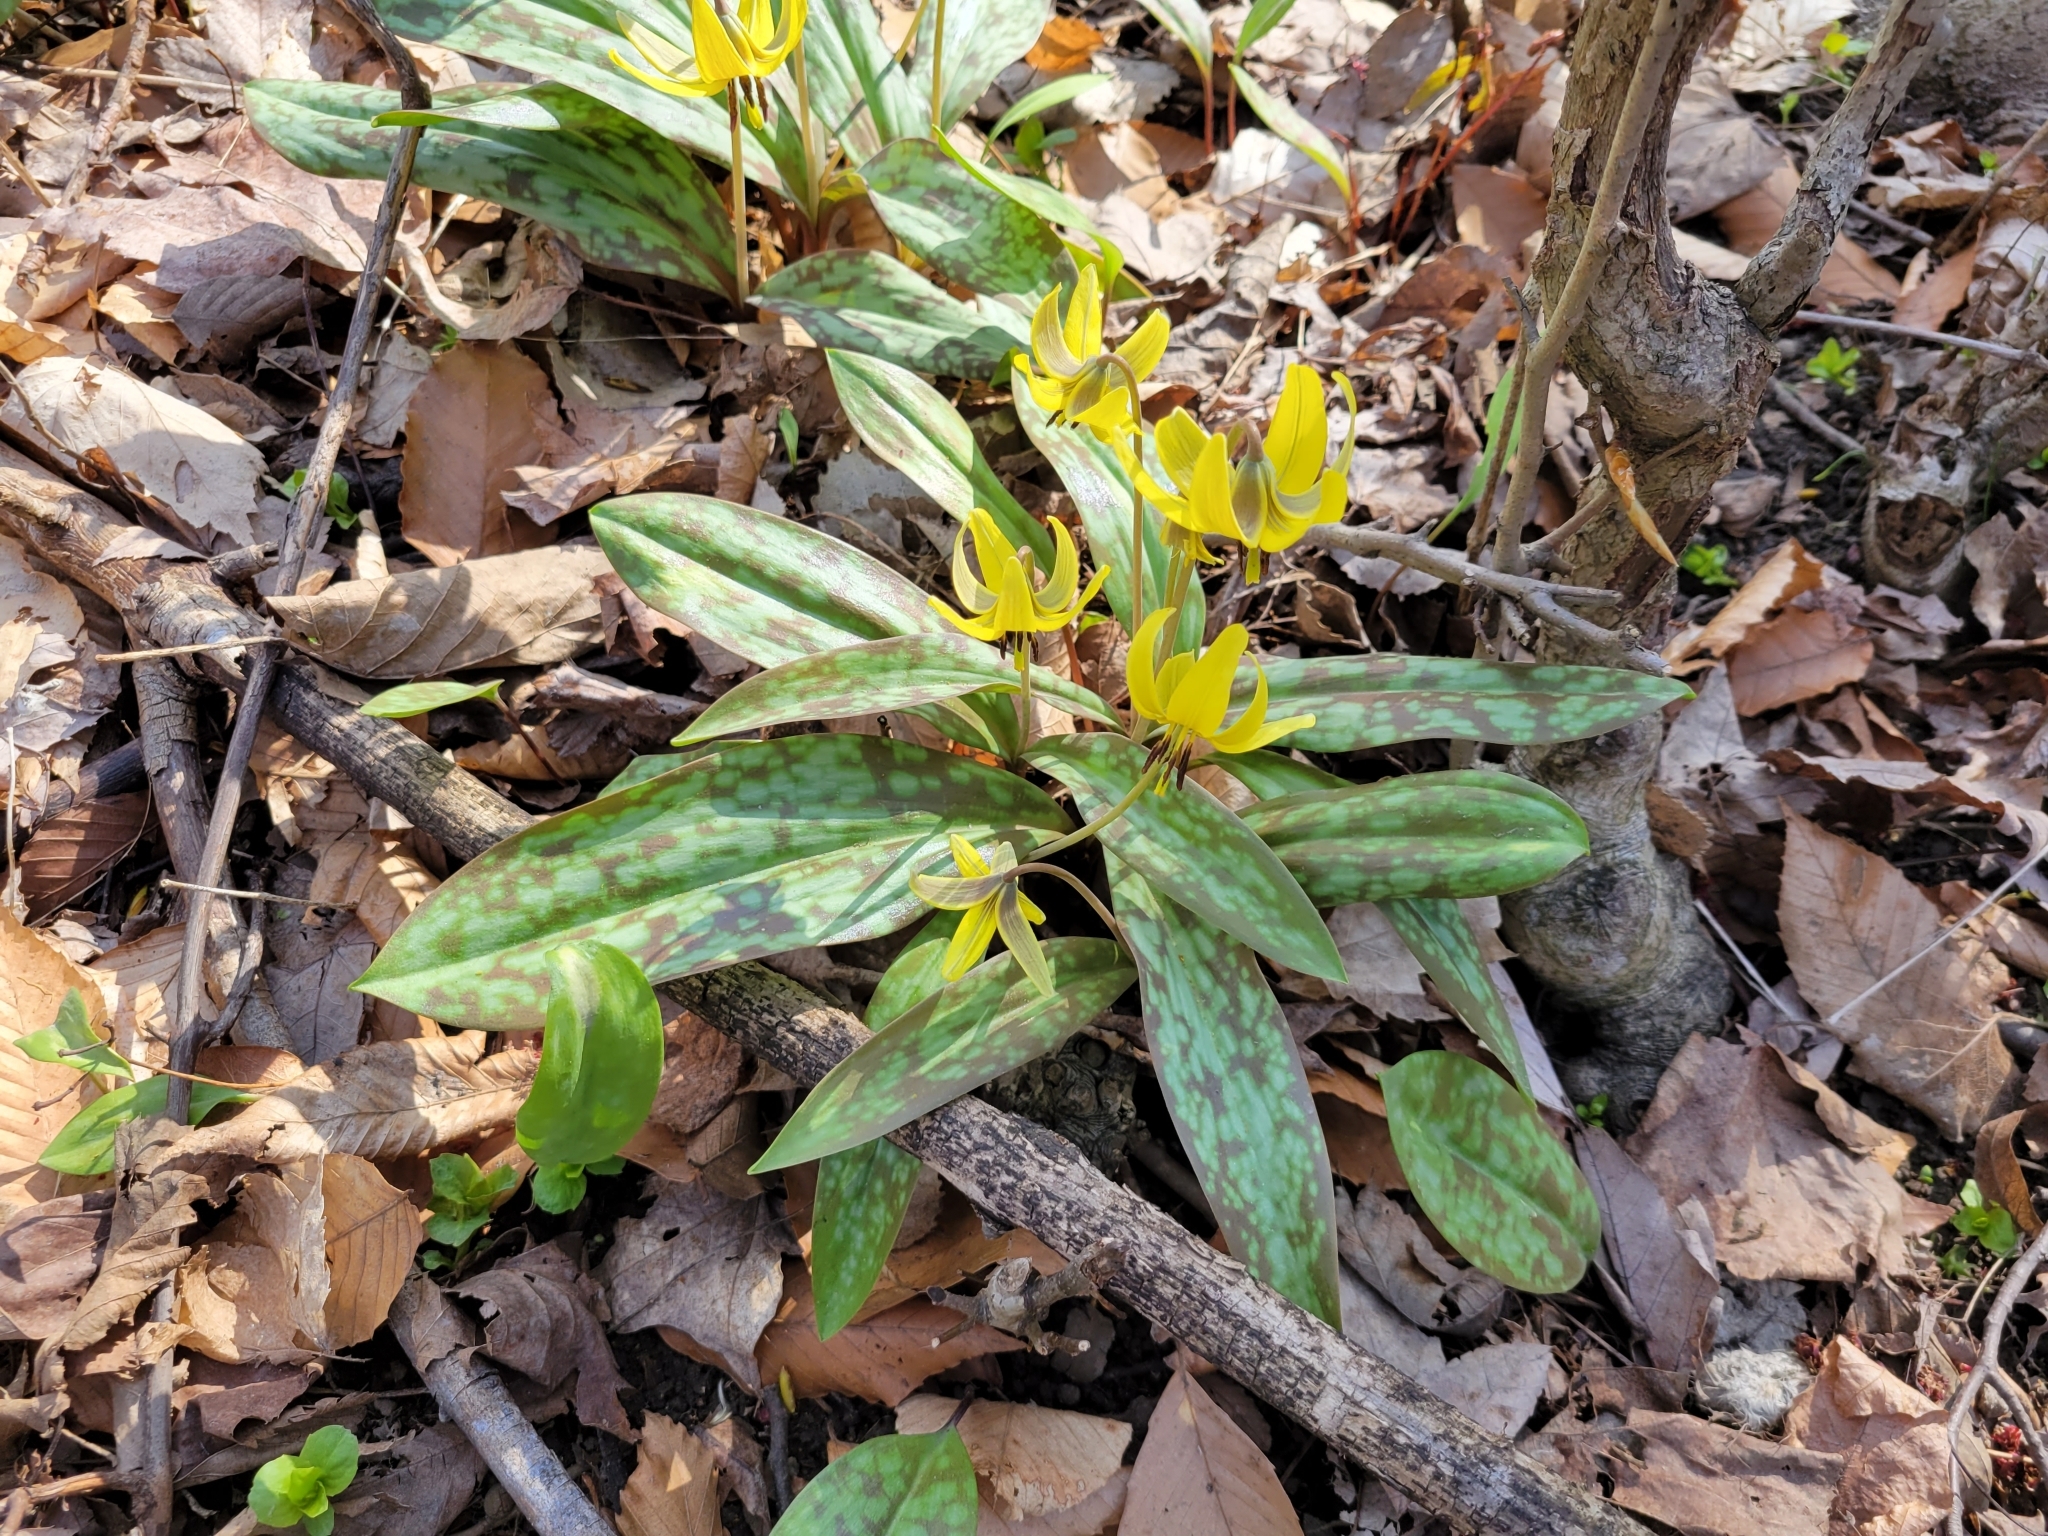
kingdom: Plantae
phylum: Tracheophyta
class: Liliopsida
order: Liliales
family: Liliaceae
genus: Erythronium
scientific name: Erythronium americanum
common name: Yellow adder's-tongue
